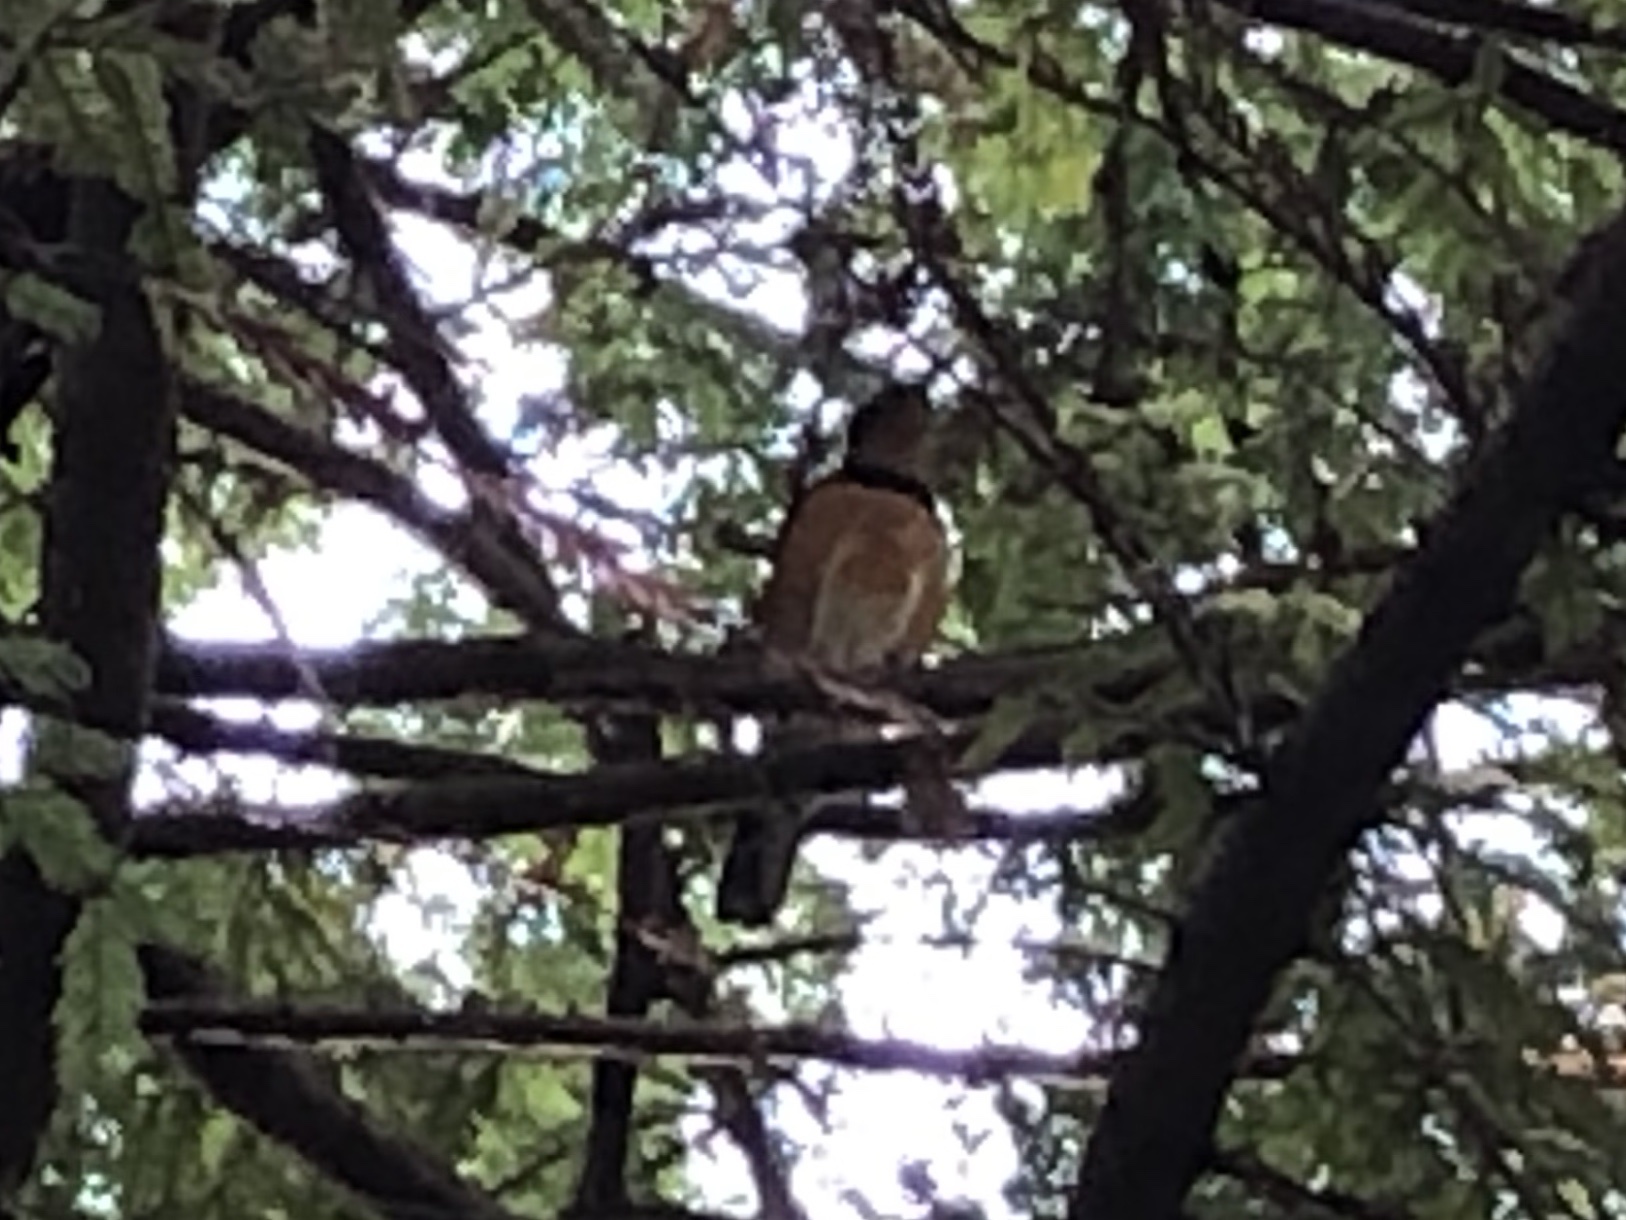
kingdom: Animalia
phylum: Chordata
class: Aves
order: Passeriformes
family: Turdidae
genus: Ixoreus
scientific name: Ixoreus naevius
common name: Varied thrush
